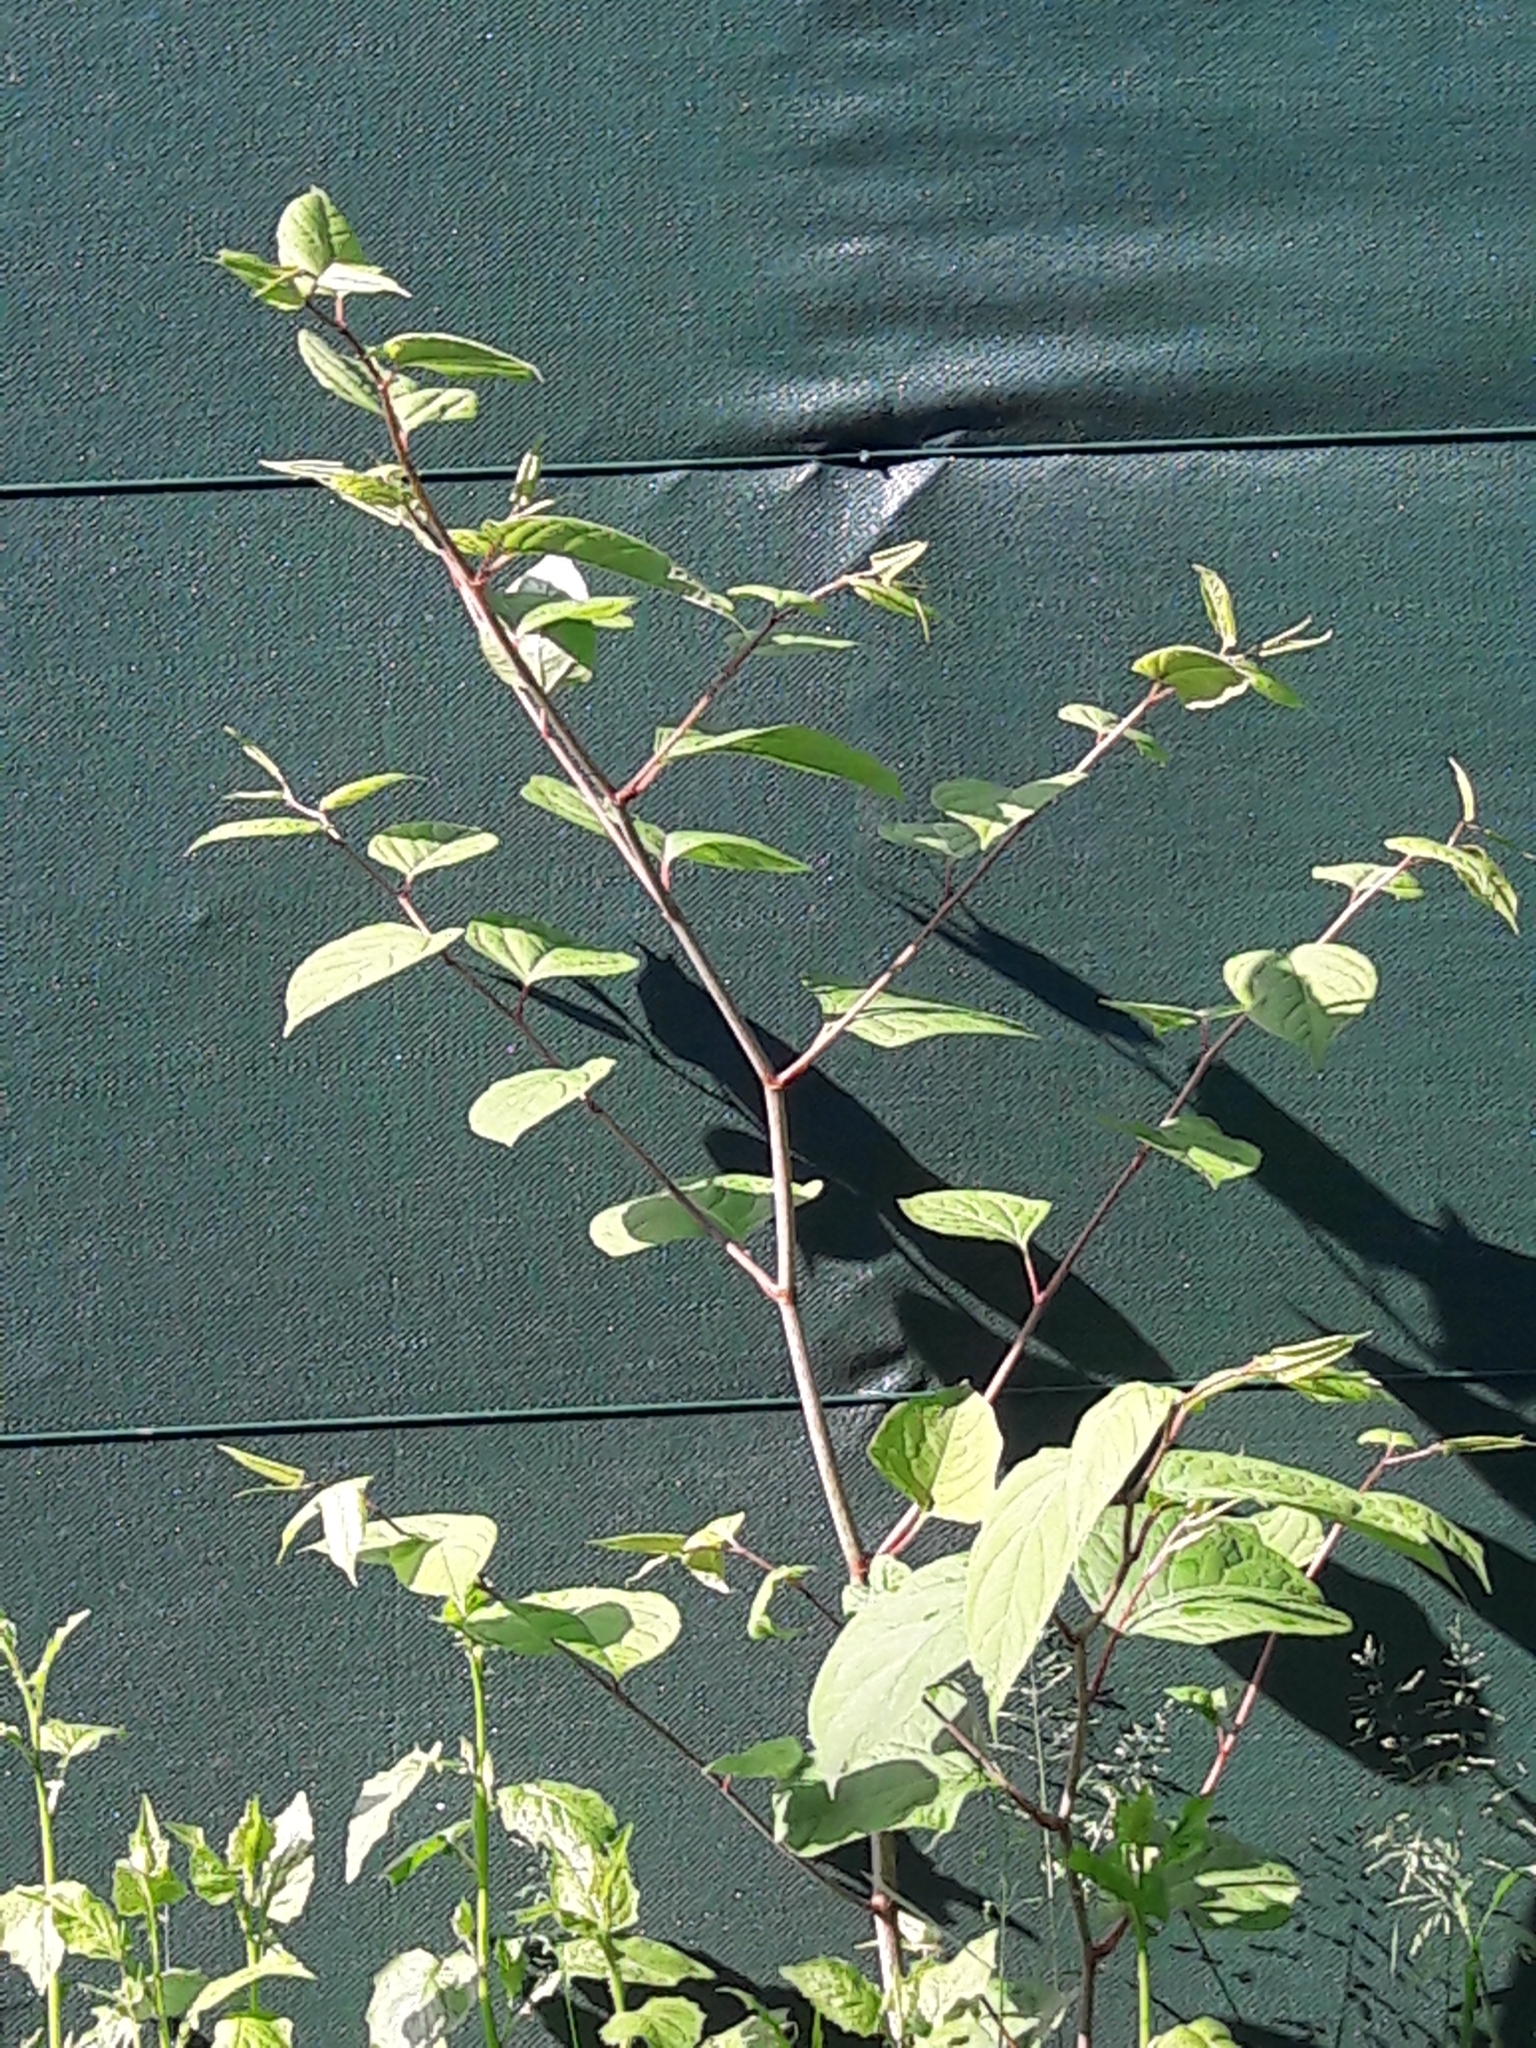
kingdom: Plantae
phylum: Tracheophyta
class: Magnoliopsida
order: Caryophyllales
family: Polygonaceae
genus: Reynoutria
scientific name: Reynoutria japonica
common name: Japanese knotweed
